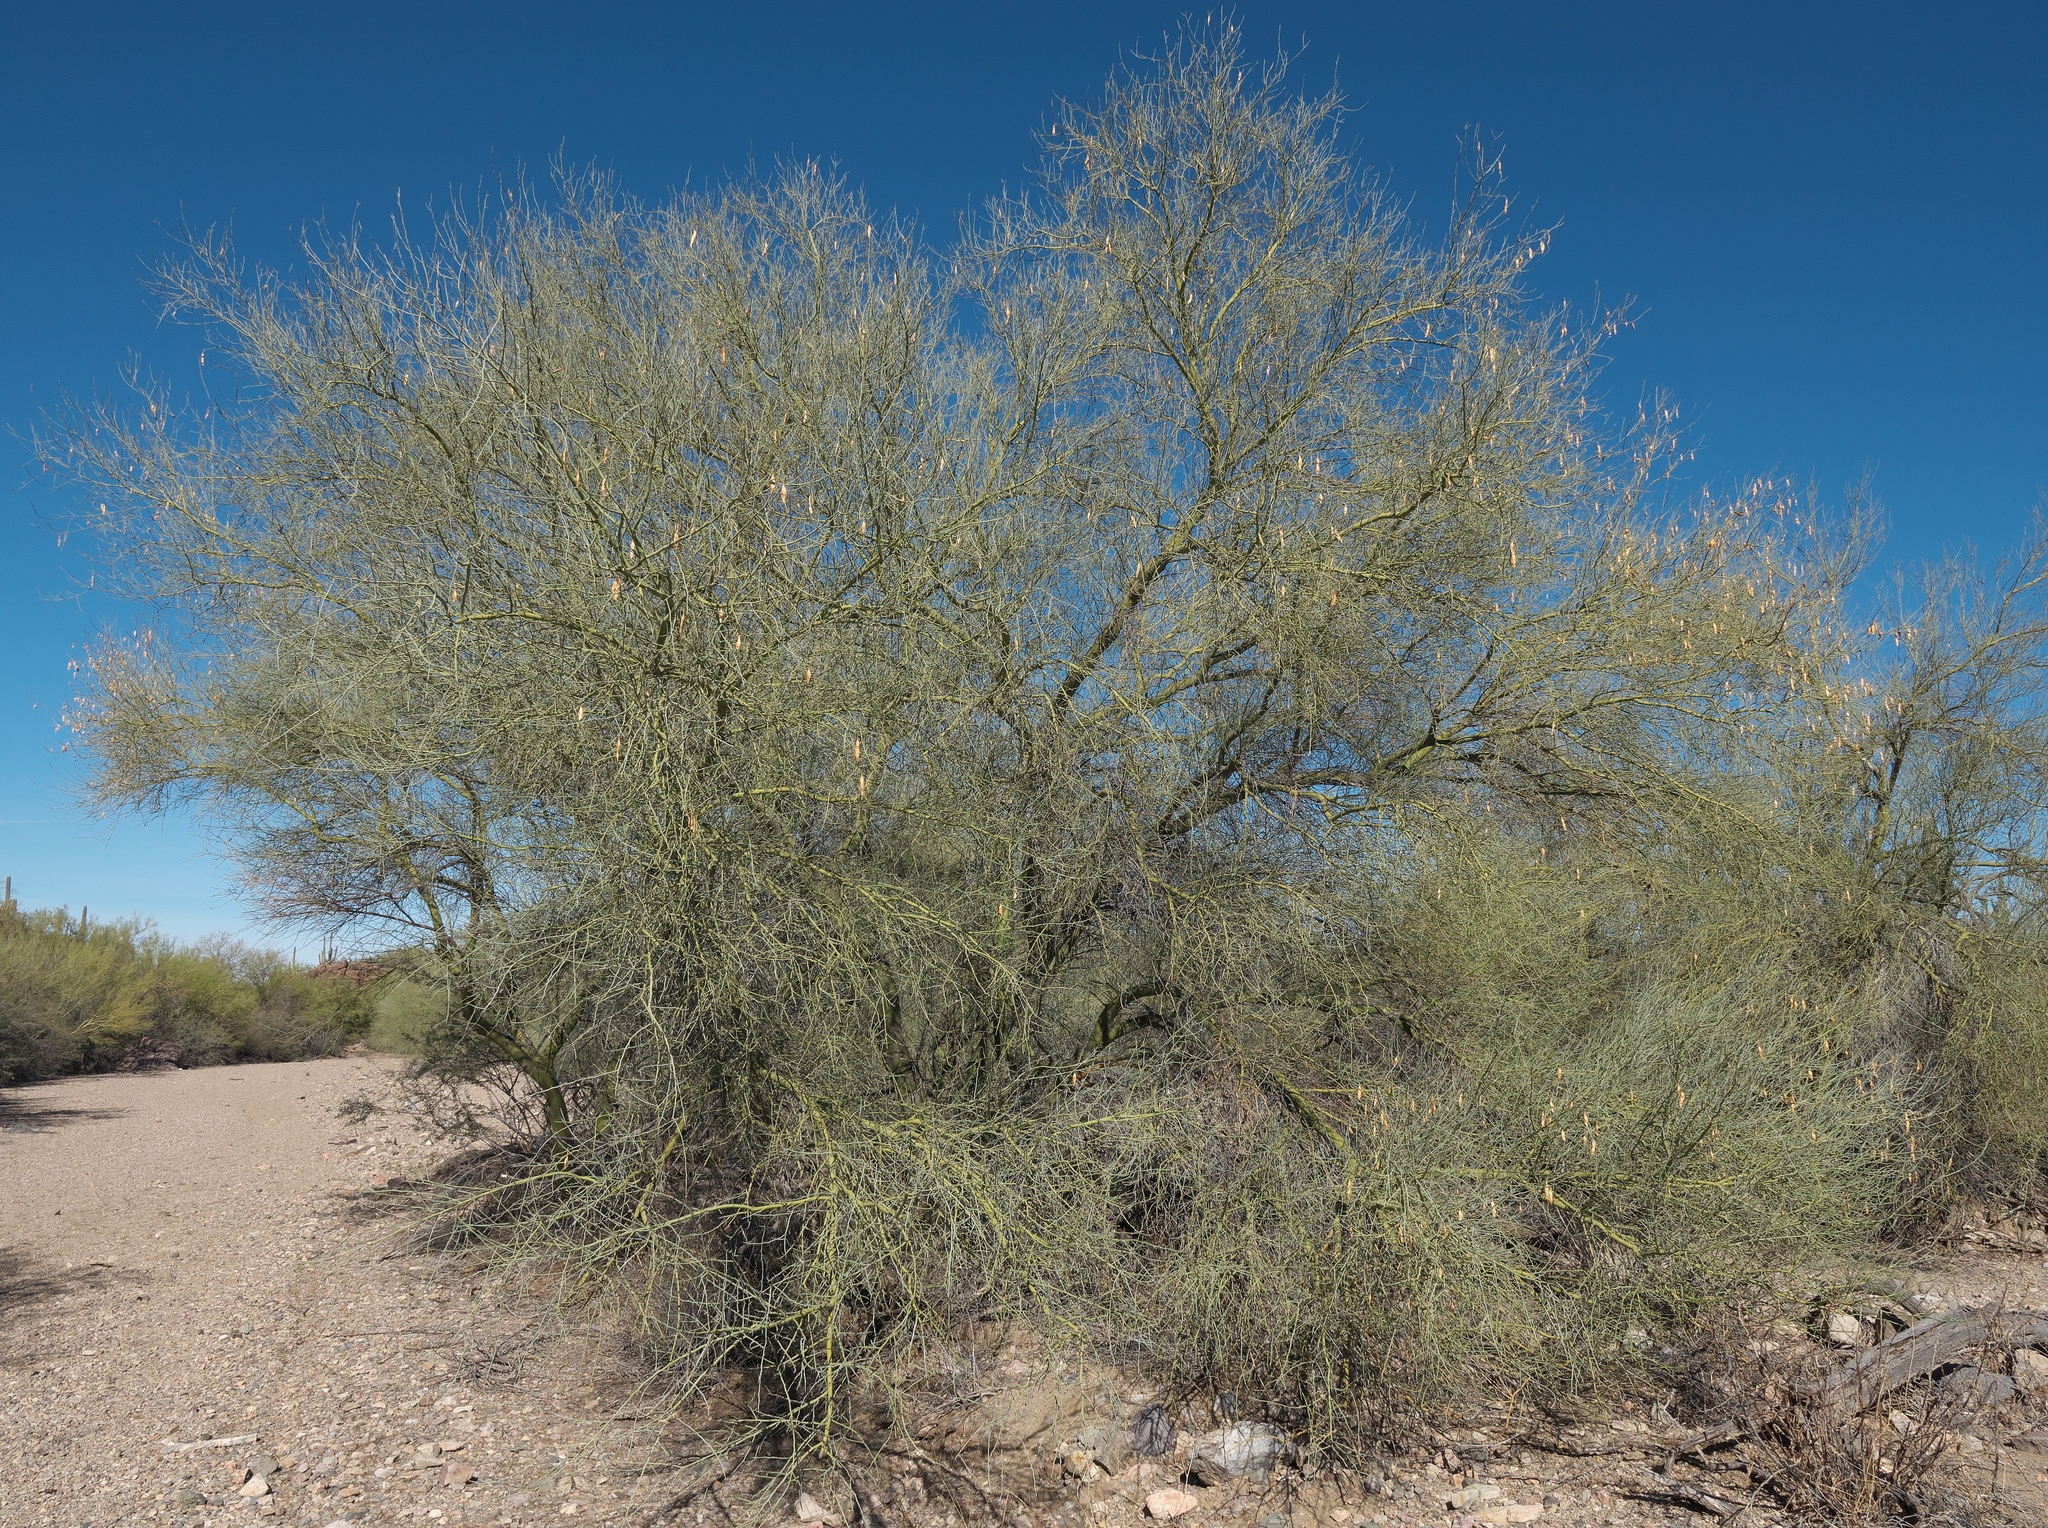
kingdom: Plantae
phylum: Tracheophyta
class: Magnoliopsida
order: Fabales
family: Fabaceae
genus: Parkinsonia
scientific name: Parkinsonia florida
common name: Blue paloverde
